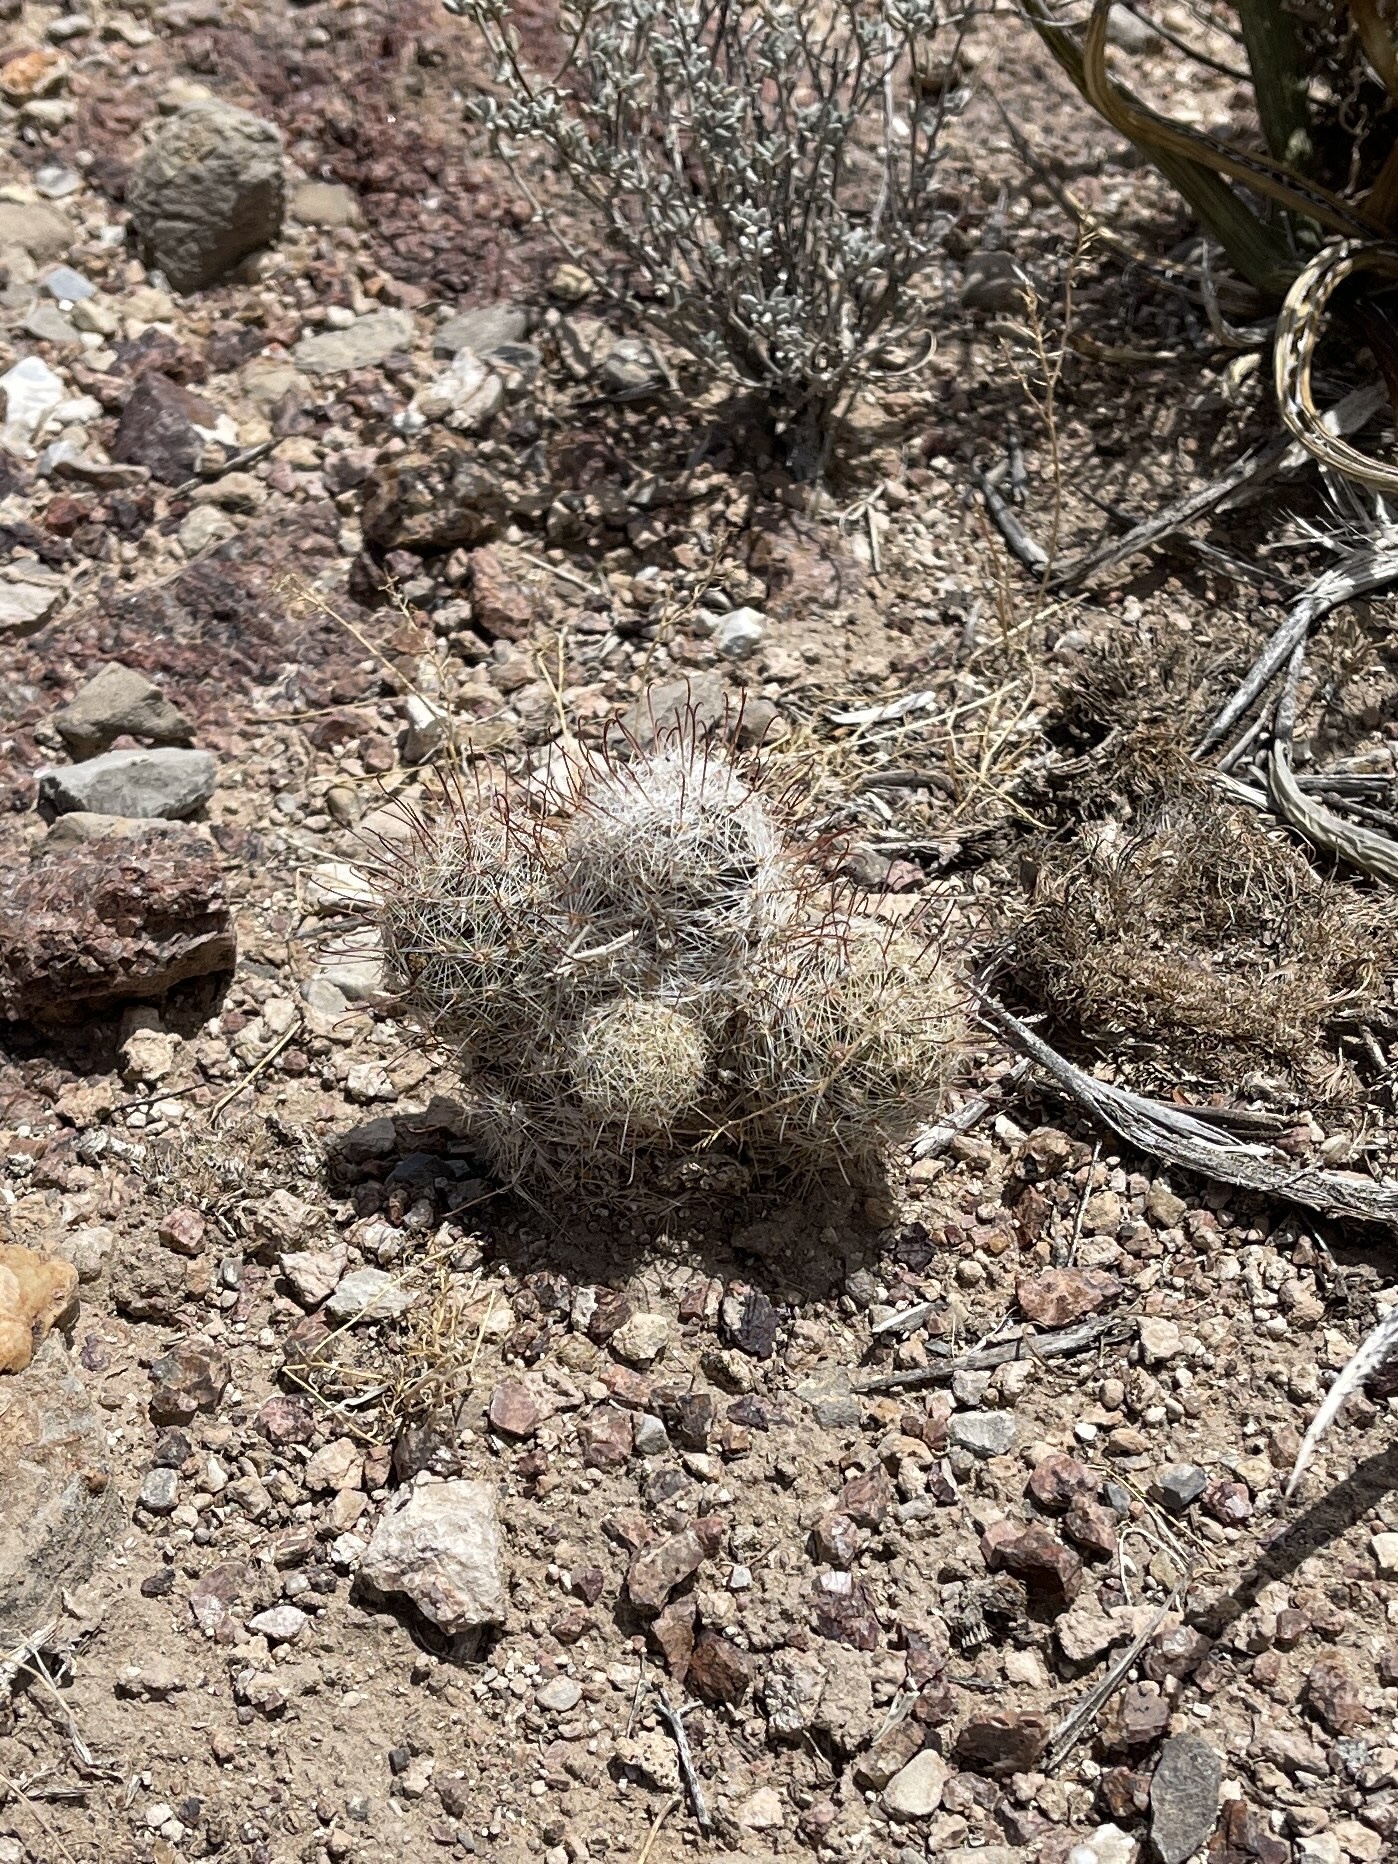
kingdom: Plantae
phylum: Tracheophyta
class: Magnoliopsida
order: Caryophyllales
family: Cactaceae
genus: Cochemiea
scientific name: Cochemiea grahamii
